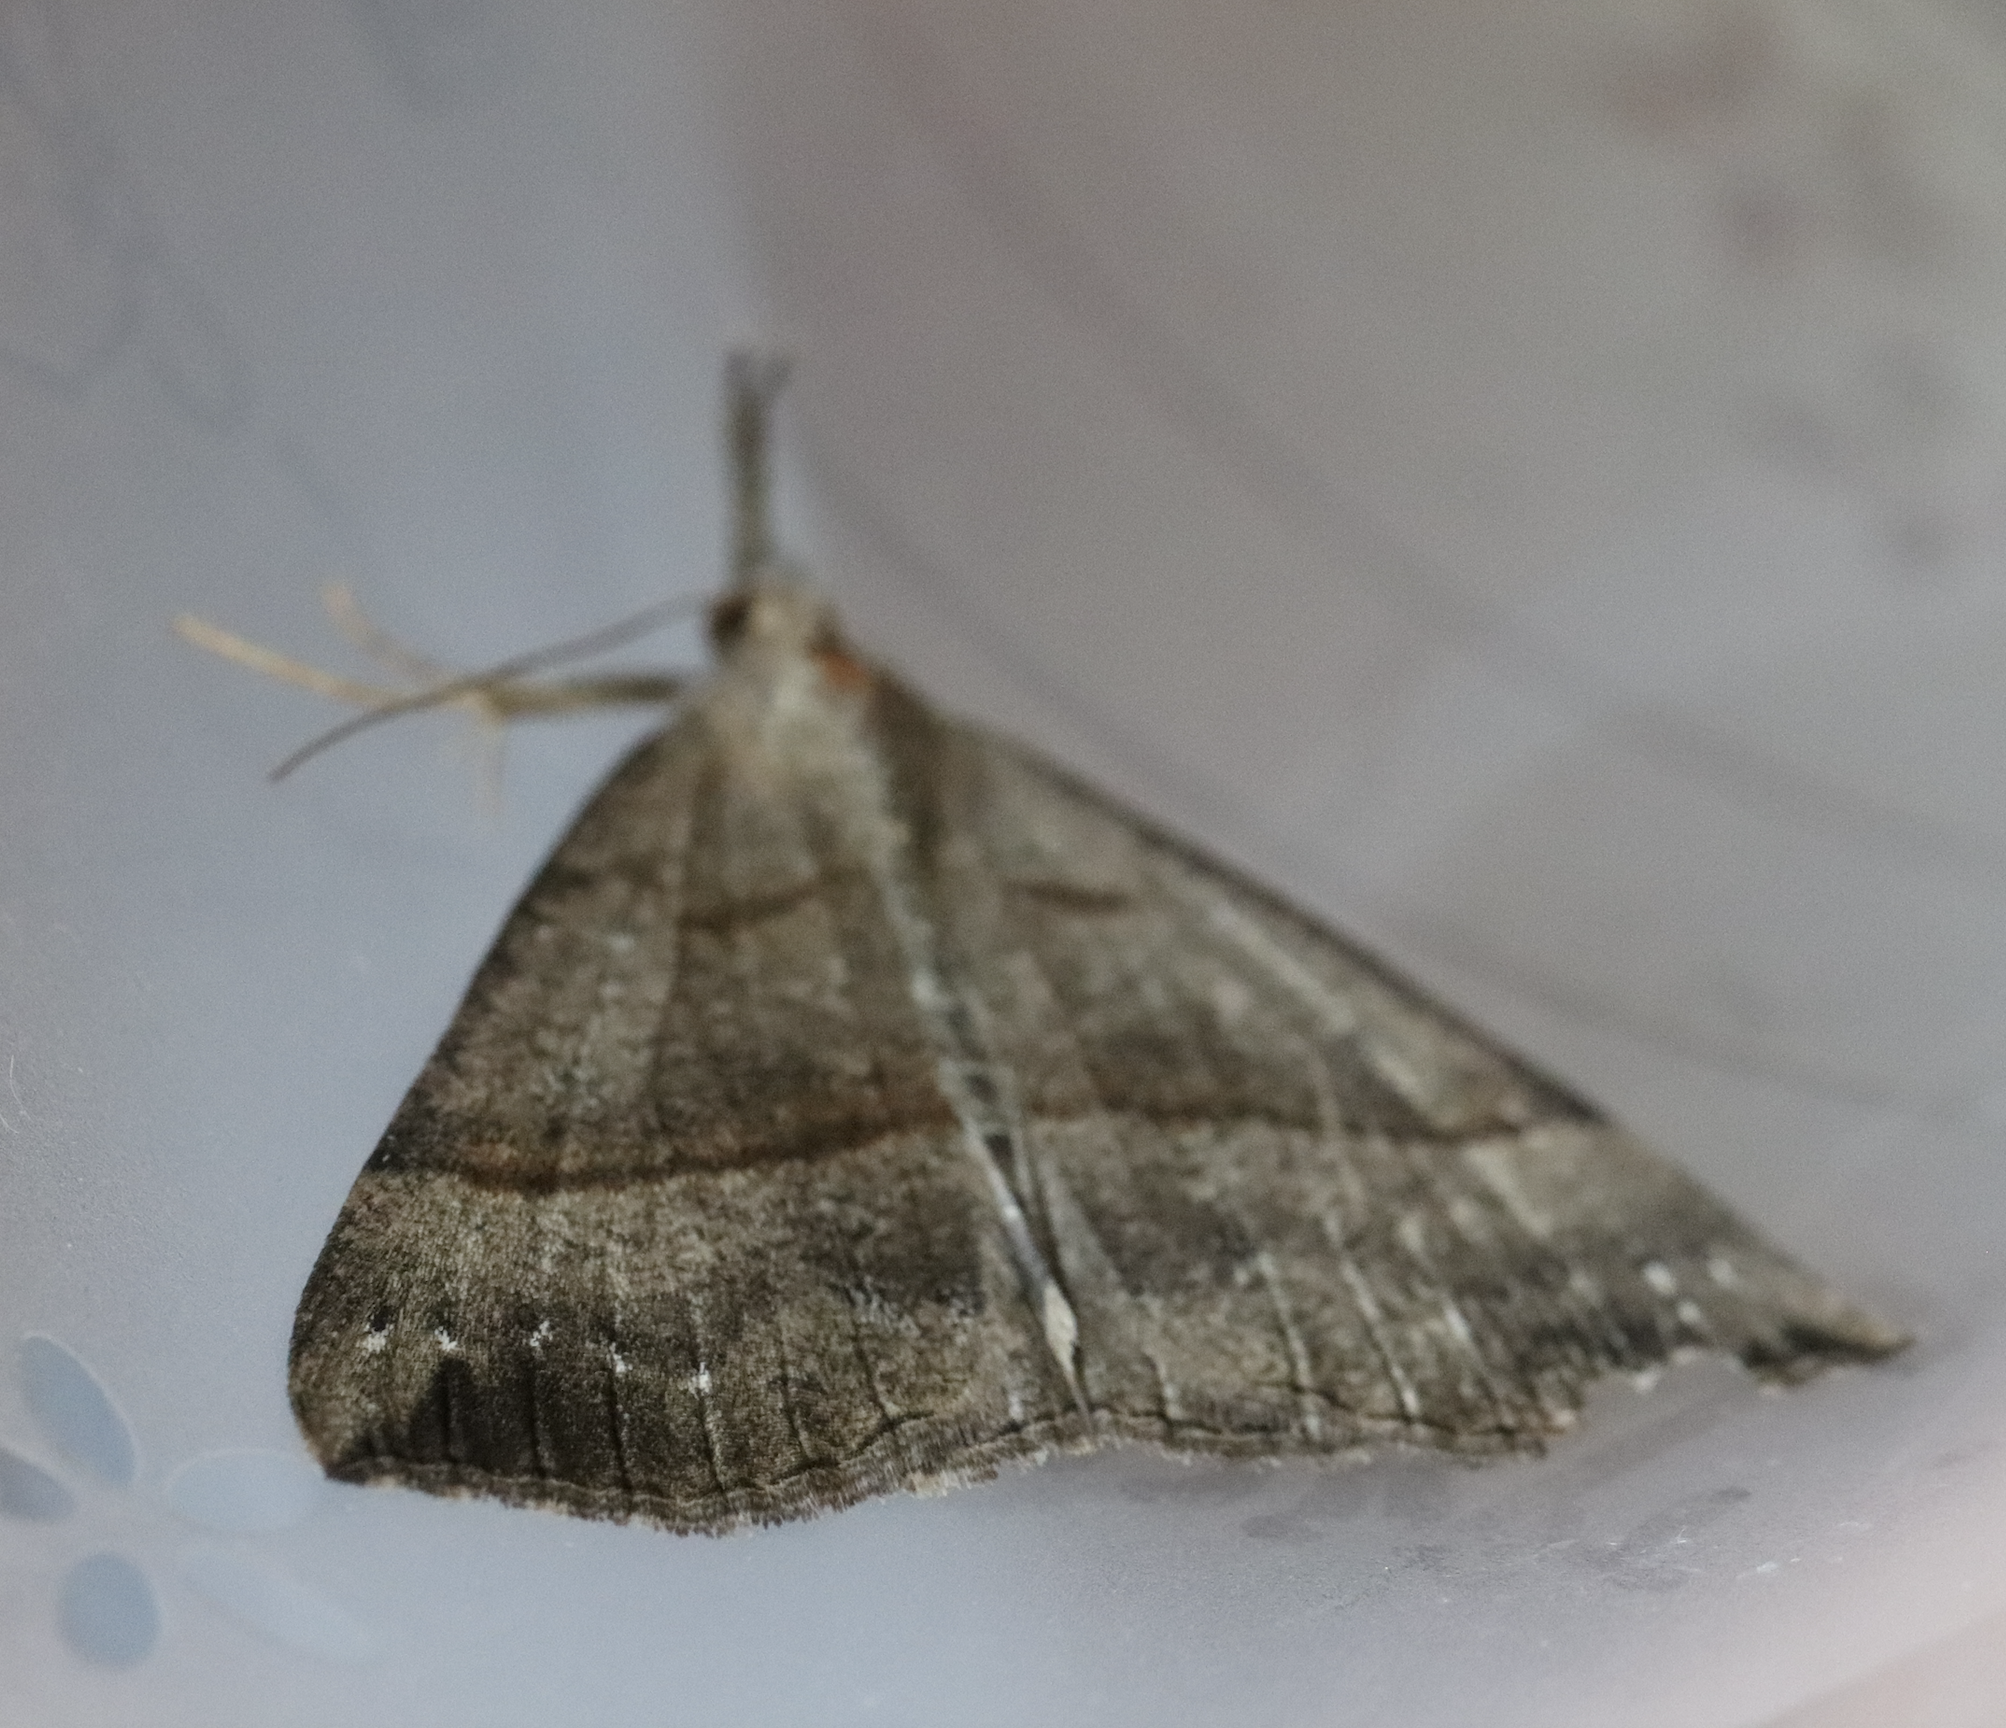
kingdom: Animalia
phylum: Arthropoda
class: Insecta
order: Lepidoptera
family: Erebidae
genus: Hypena
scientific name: Hypena proboscidalis
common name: Snout
